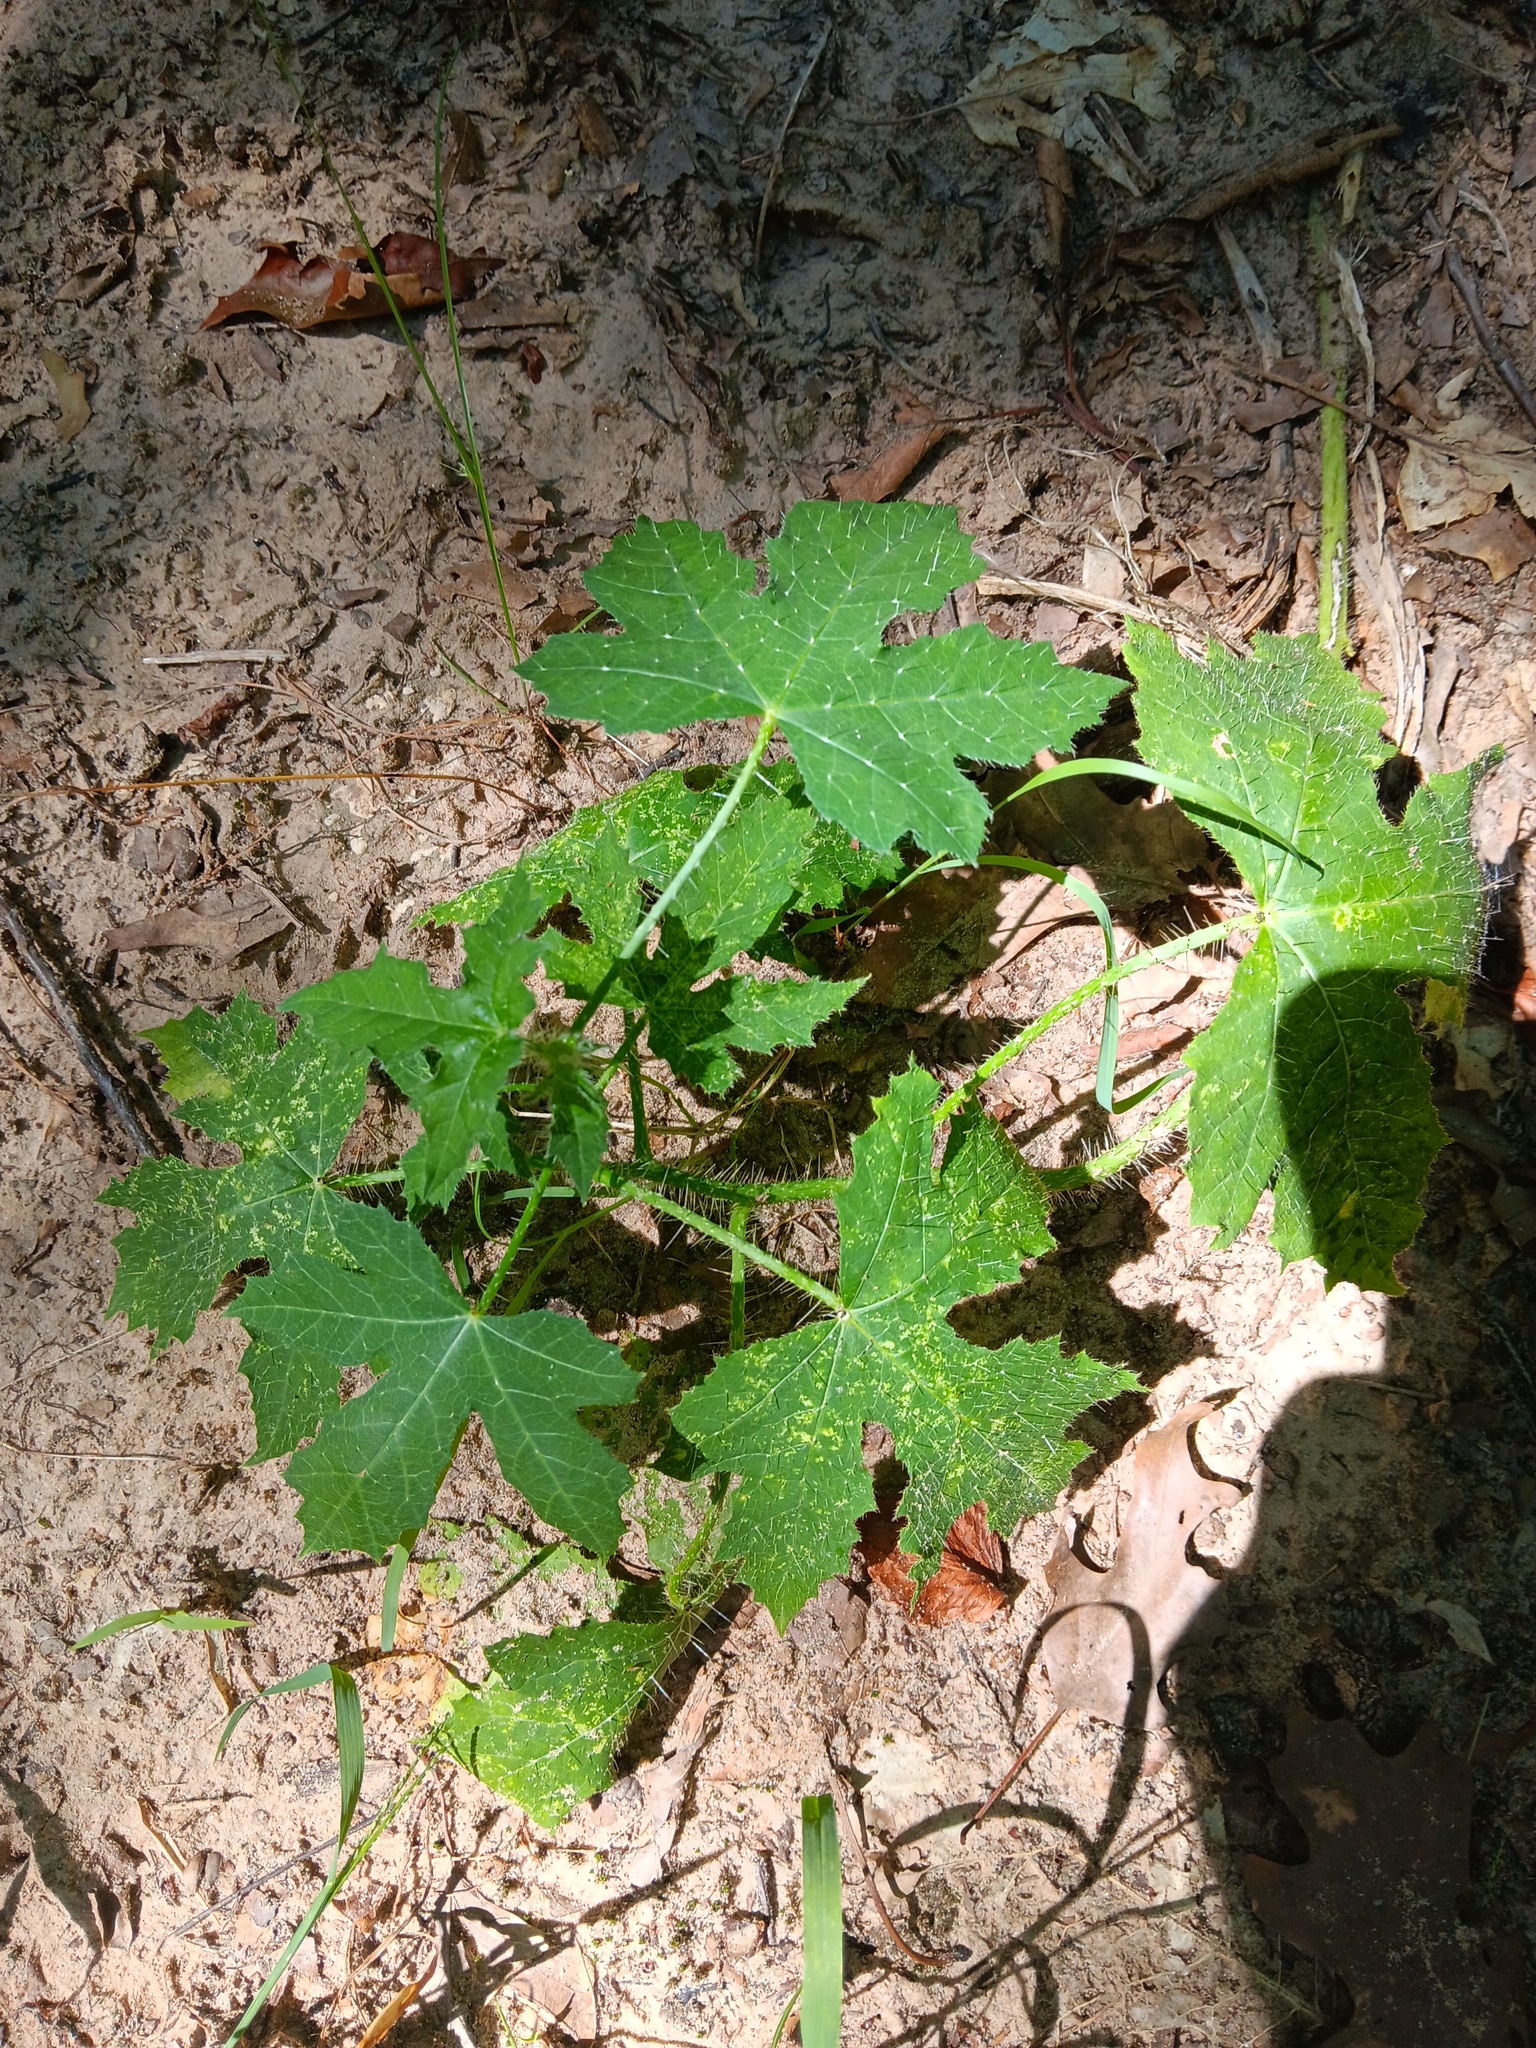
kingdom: Plantae
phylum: Tracheophyta
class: Magnoliopsida
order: Malpighiales
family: Euphorbiaceae
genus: Cnidoscolus
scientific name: Cnidoscolus texanus
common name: Texas bull-nettle
